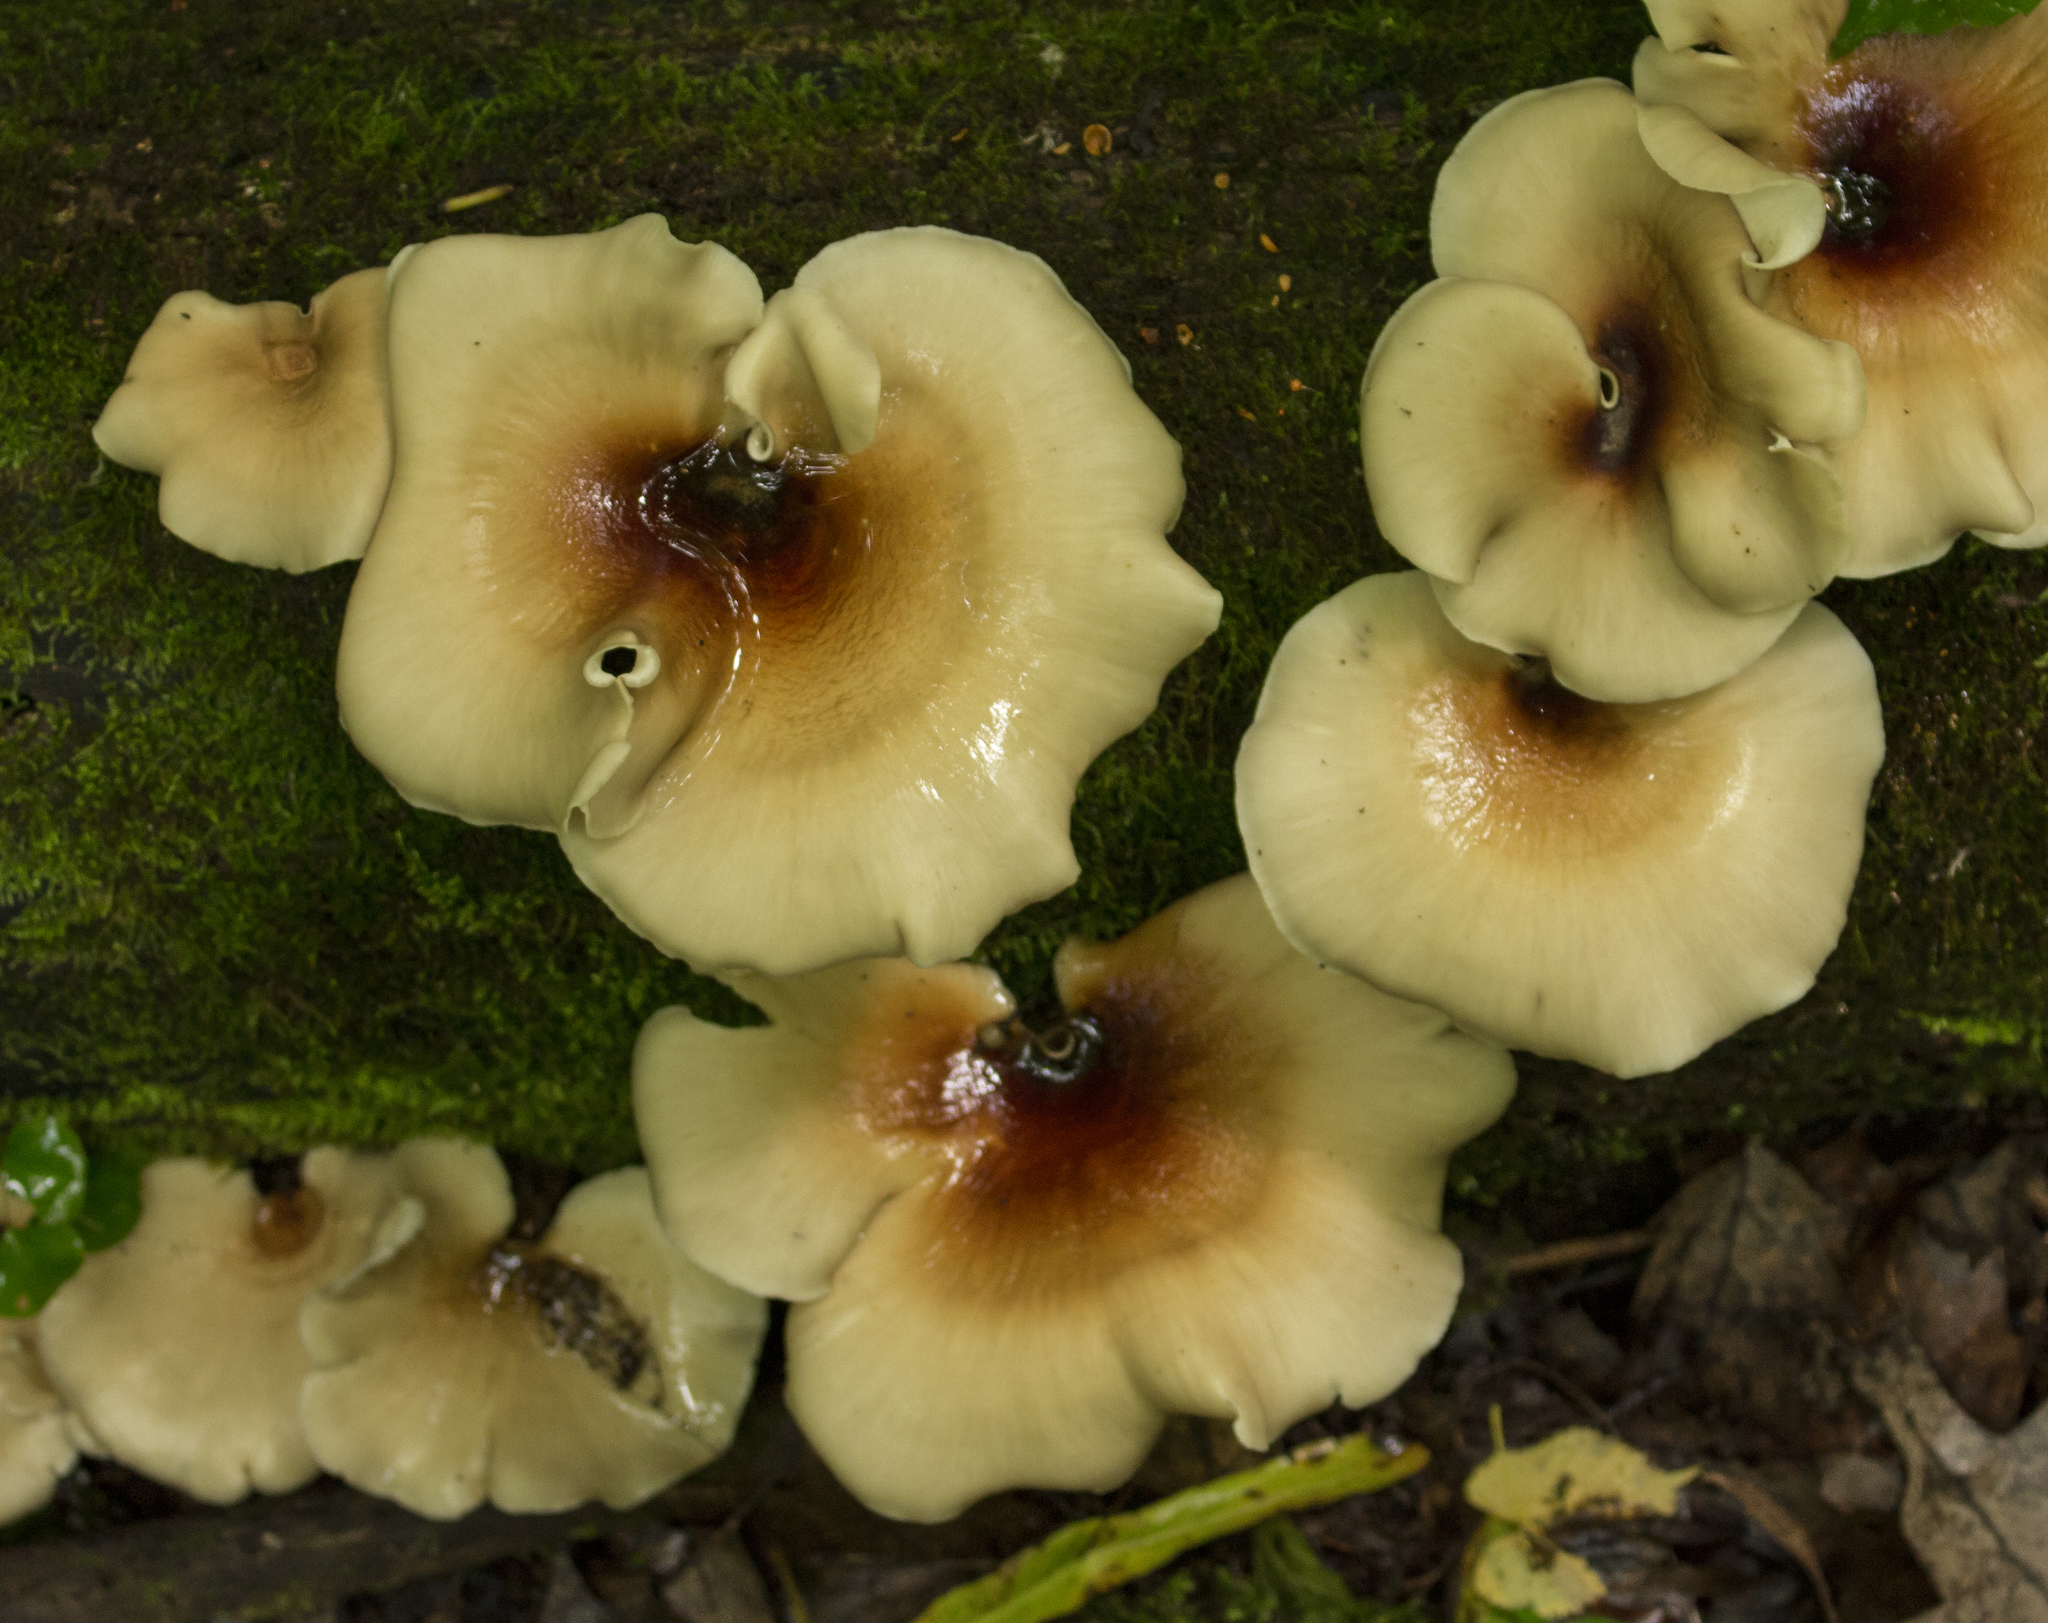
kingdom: Fungi
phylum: Basidiomycota
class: Agaricomycetes
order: Polyporales
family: Polyporaceae
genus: Picipes
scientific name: Picipes badius
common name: Bay polypore
